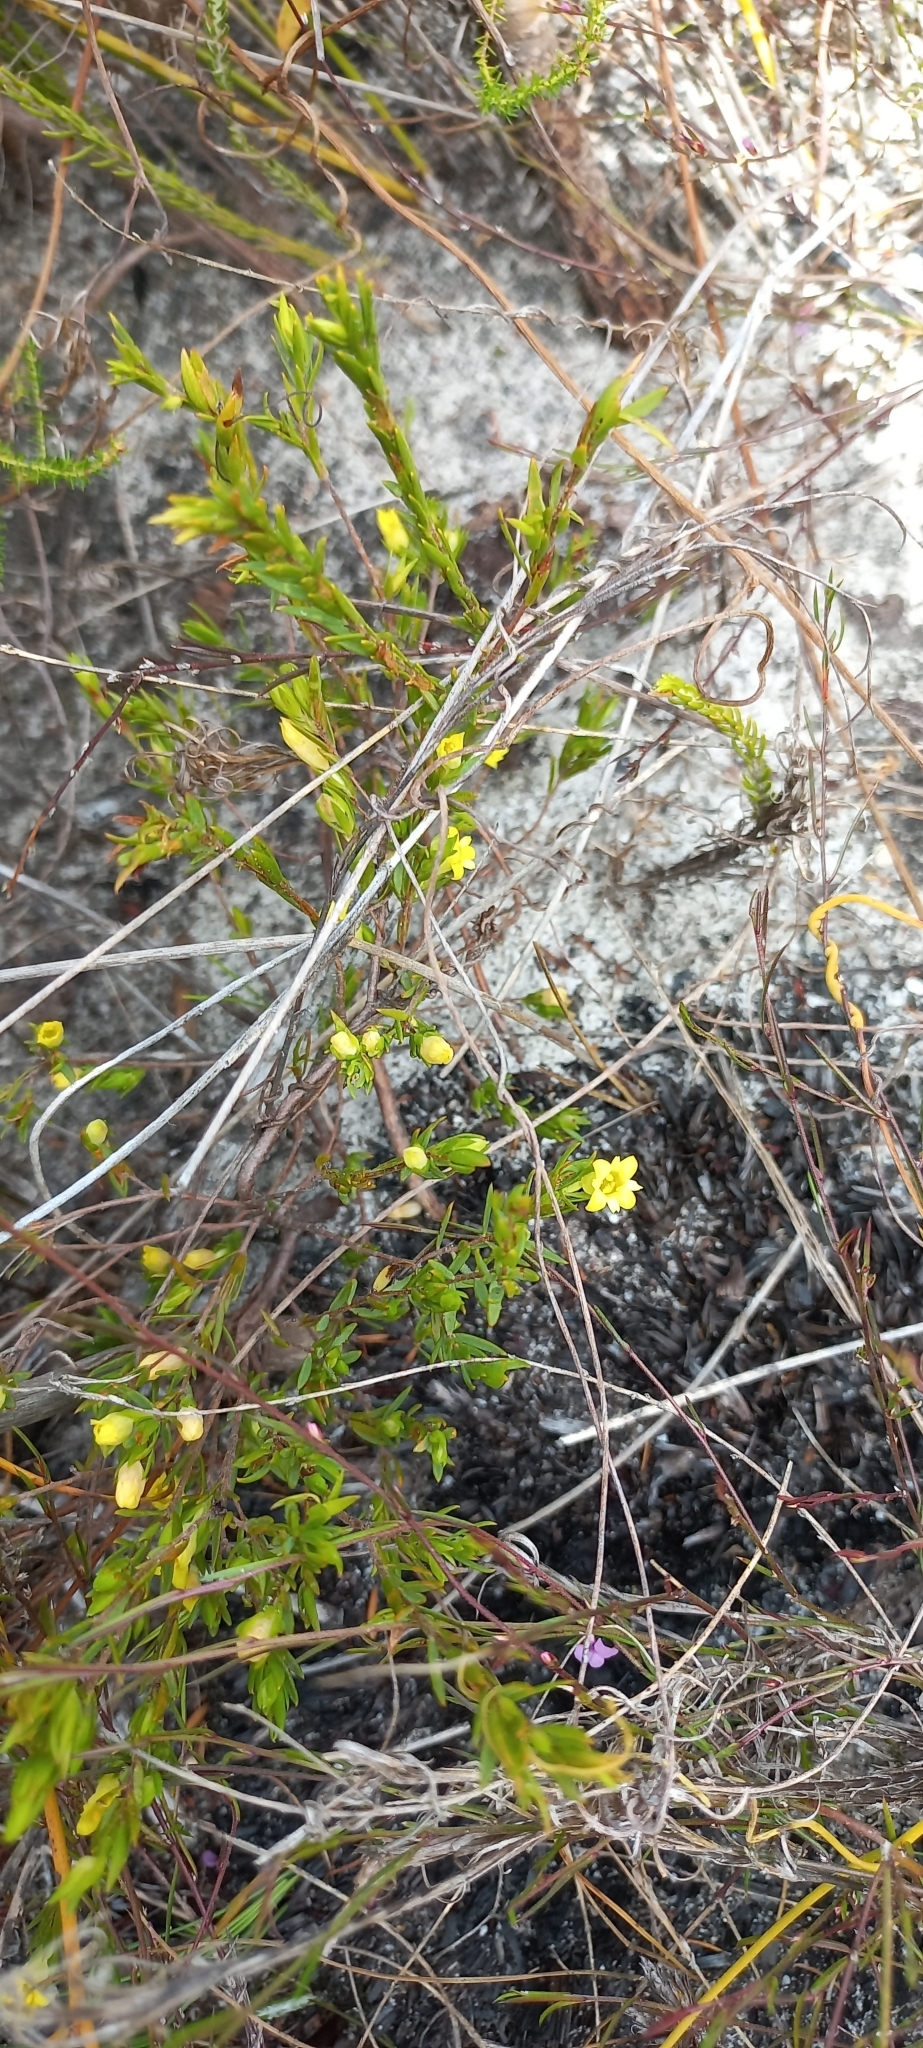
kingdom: Plantae
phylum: Tracheophyta
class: Magnoliopsida
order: Malvales
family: Thymelaeaceae
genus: Gnidia
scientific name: Gnidia juniperifolia
